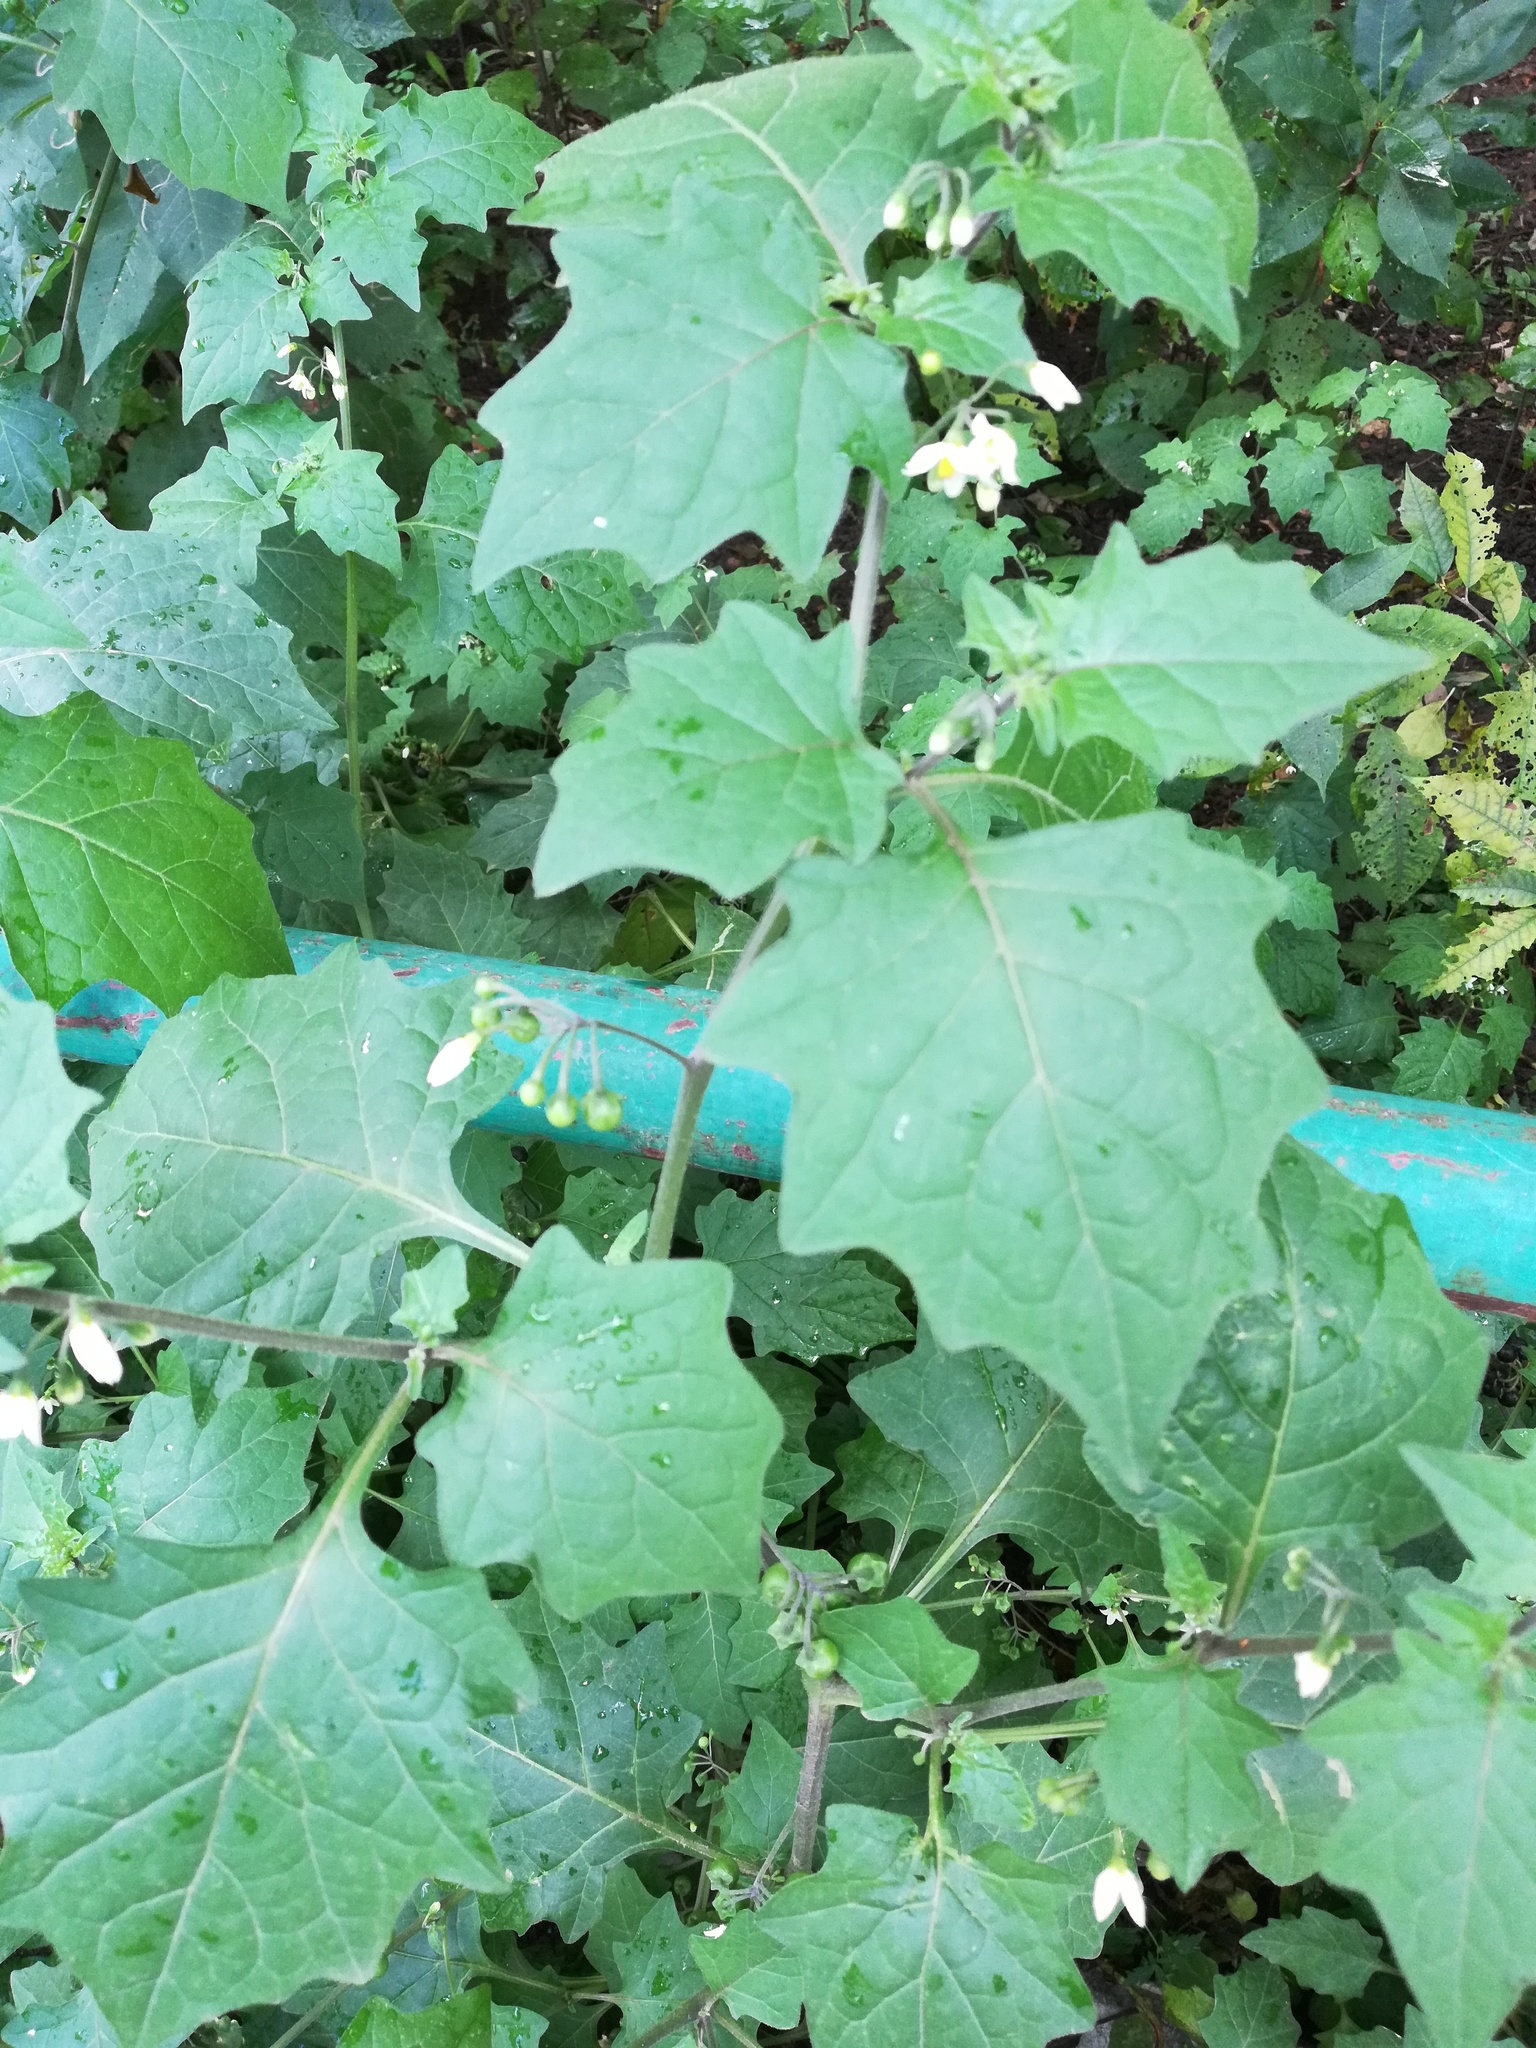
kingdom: Plantae
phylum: Tracheophyta
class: Magnoliopsida
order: Solanales
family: Solanaceae
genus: Solanum
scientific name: Solanum nigrum
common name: Black nightshade
